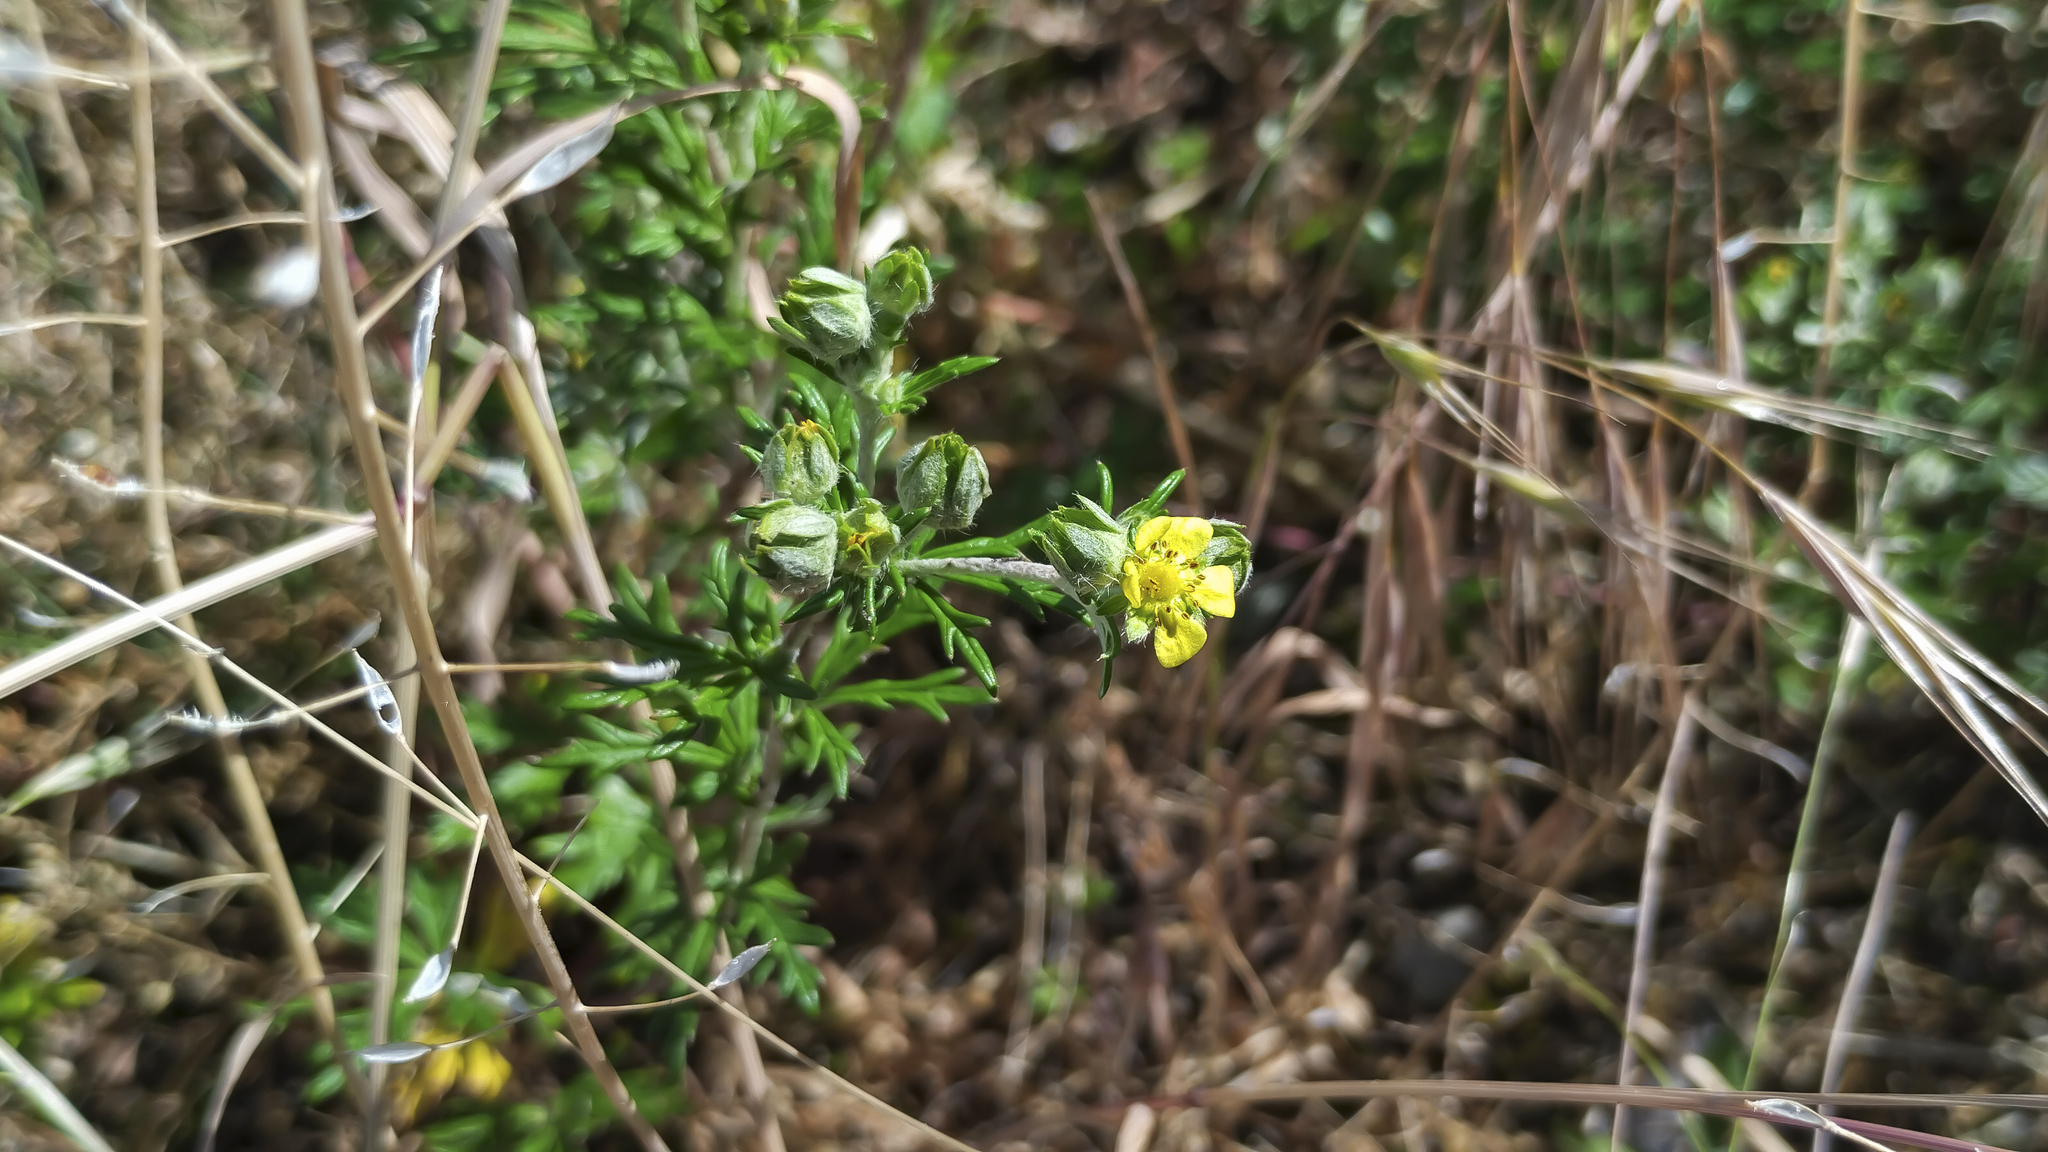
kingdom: Plantae
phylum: Tracheophyta
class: Magnoliopsida
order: Rosales
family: Rosaceae
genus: Potentilla
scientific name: Potentilla argentea
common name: Hoary cinquefoil
